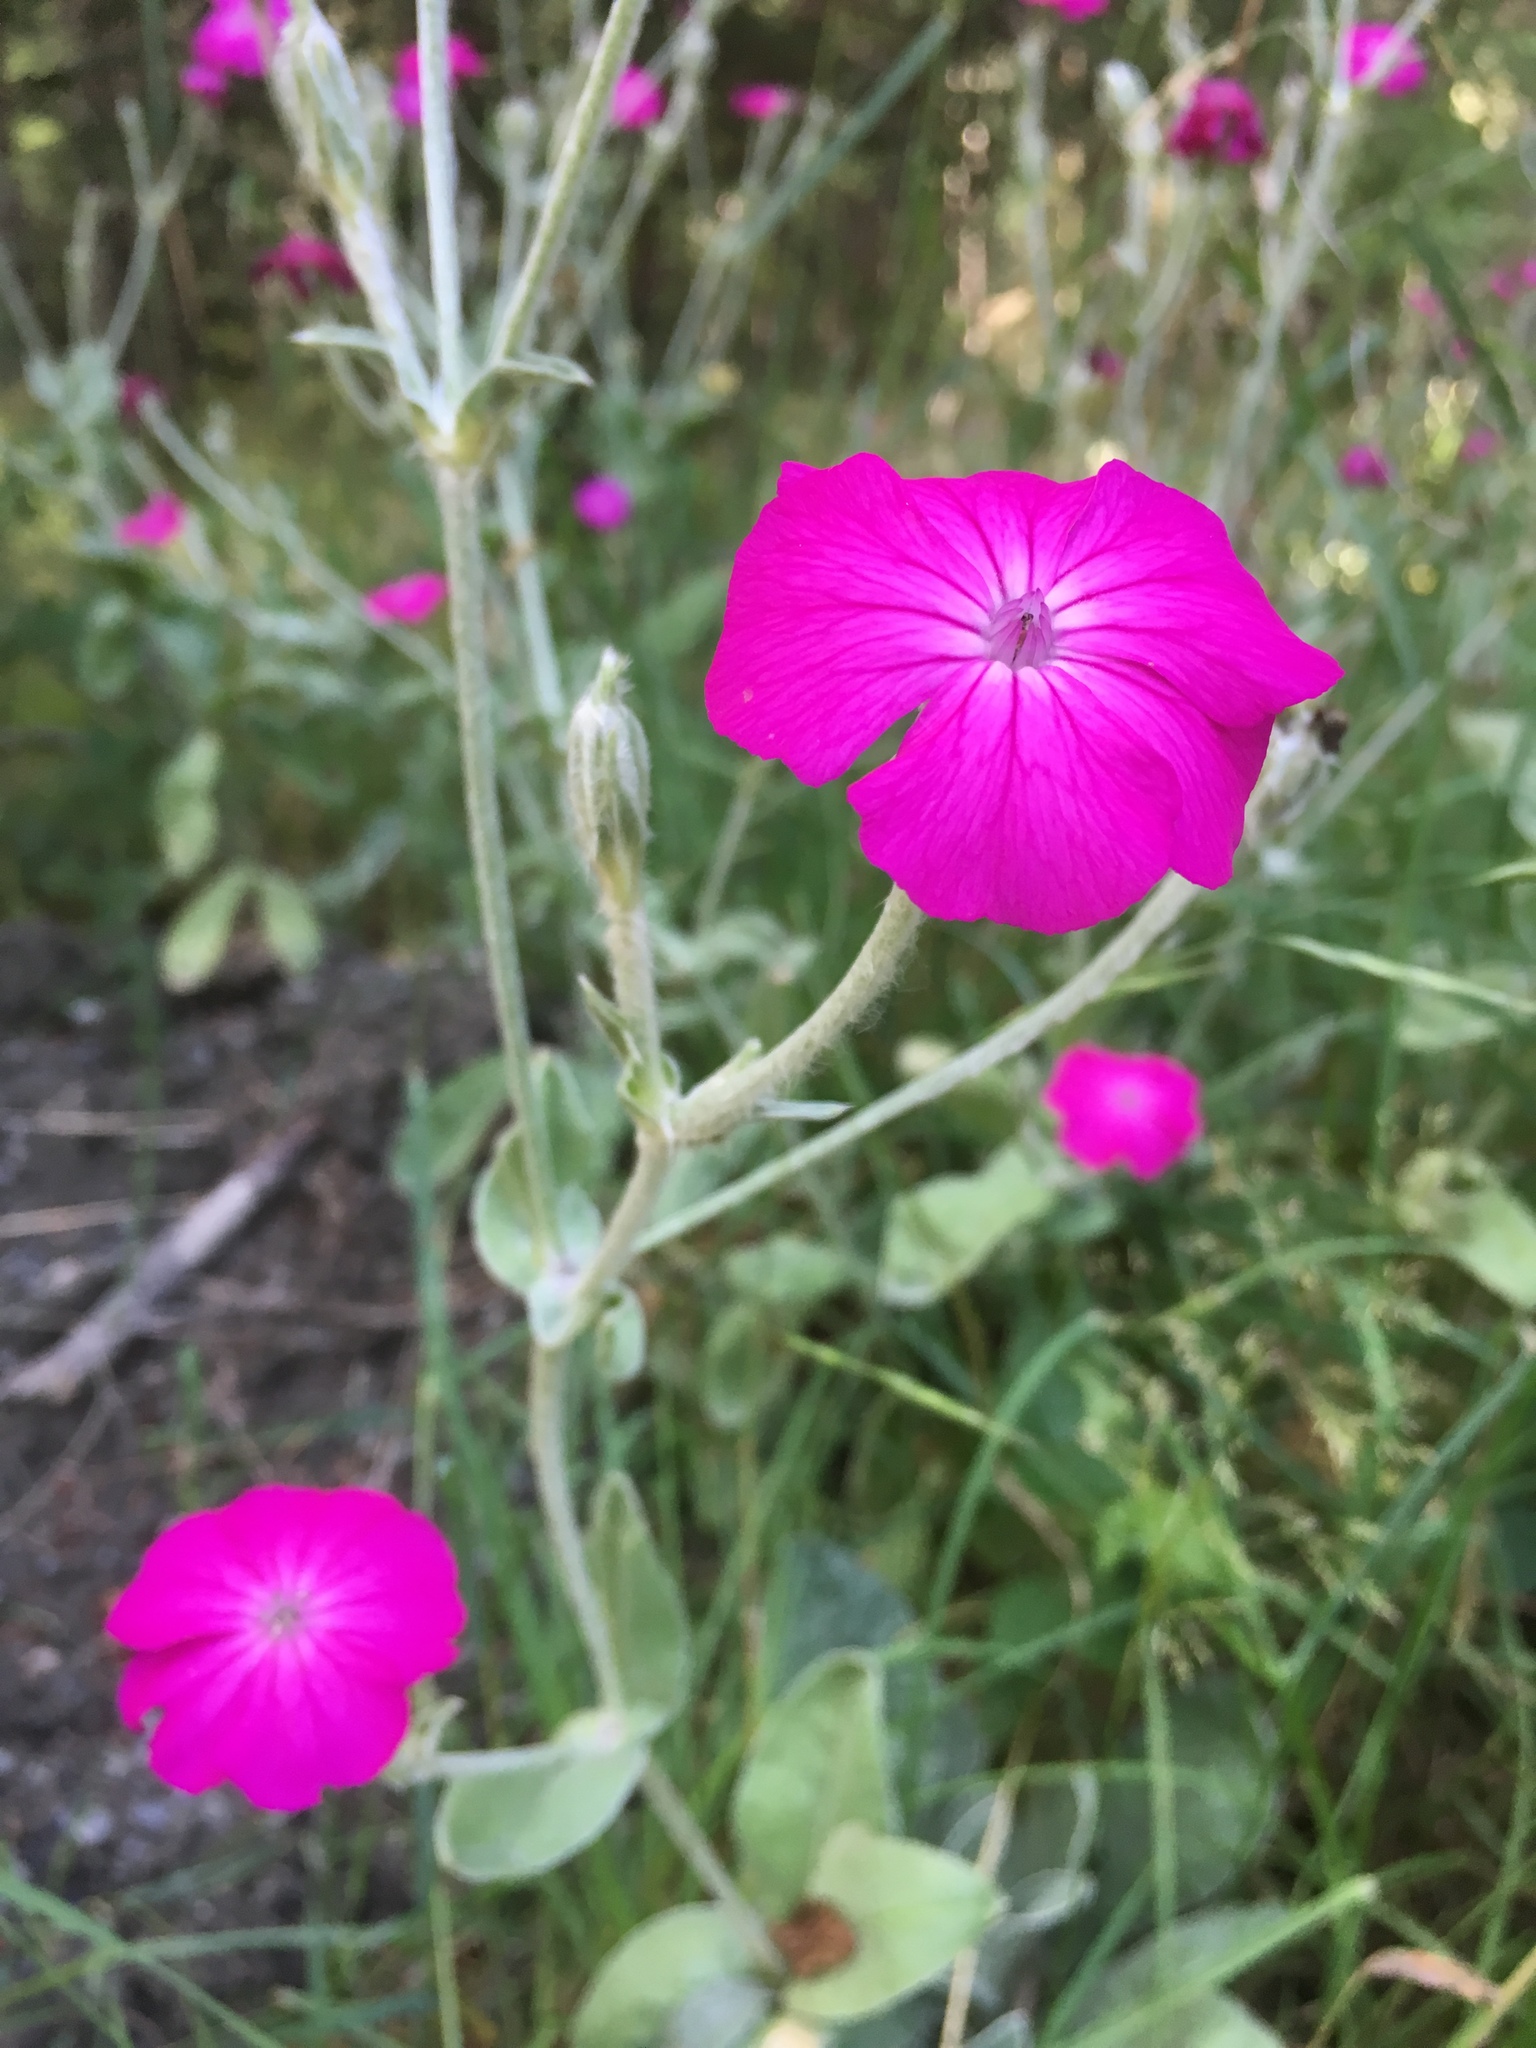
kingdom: Plantae
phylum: Tracheophyta
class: Magnoliopsida
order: Caryophyllales
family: Caryophyllaceae
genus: Silene
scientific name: Silene coronaria
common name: Rose campion
